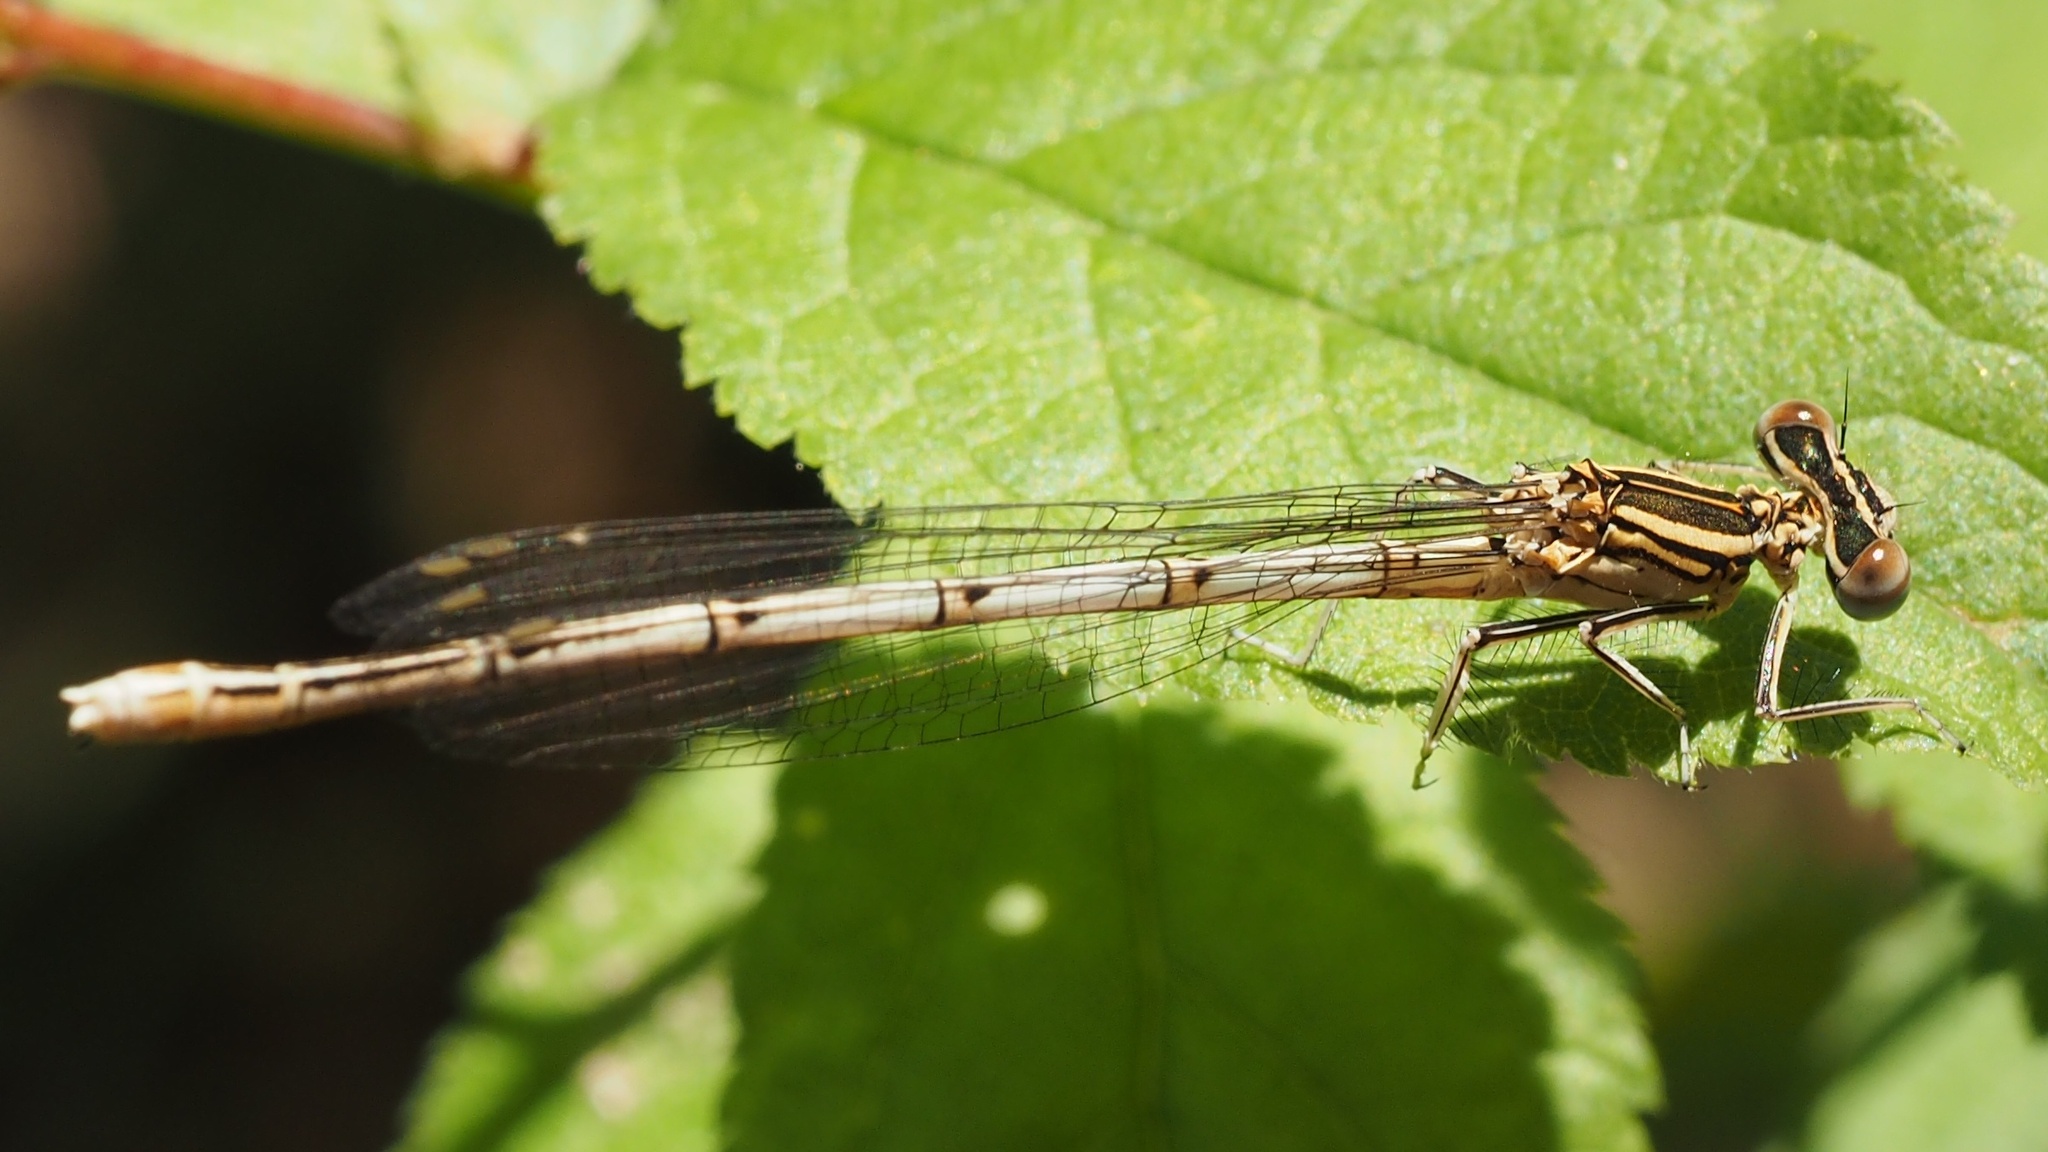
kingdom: Animalia
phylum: Arthropoda
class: Insecta
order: Odonata
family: Platycnemididae
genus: Platycnemis
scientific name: Platycnemis pennipes
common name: White-legged damselfly
